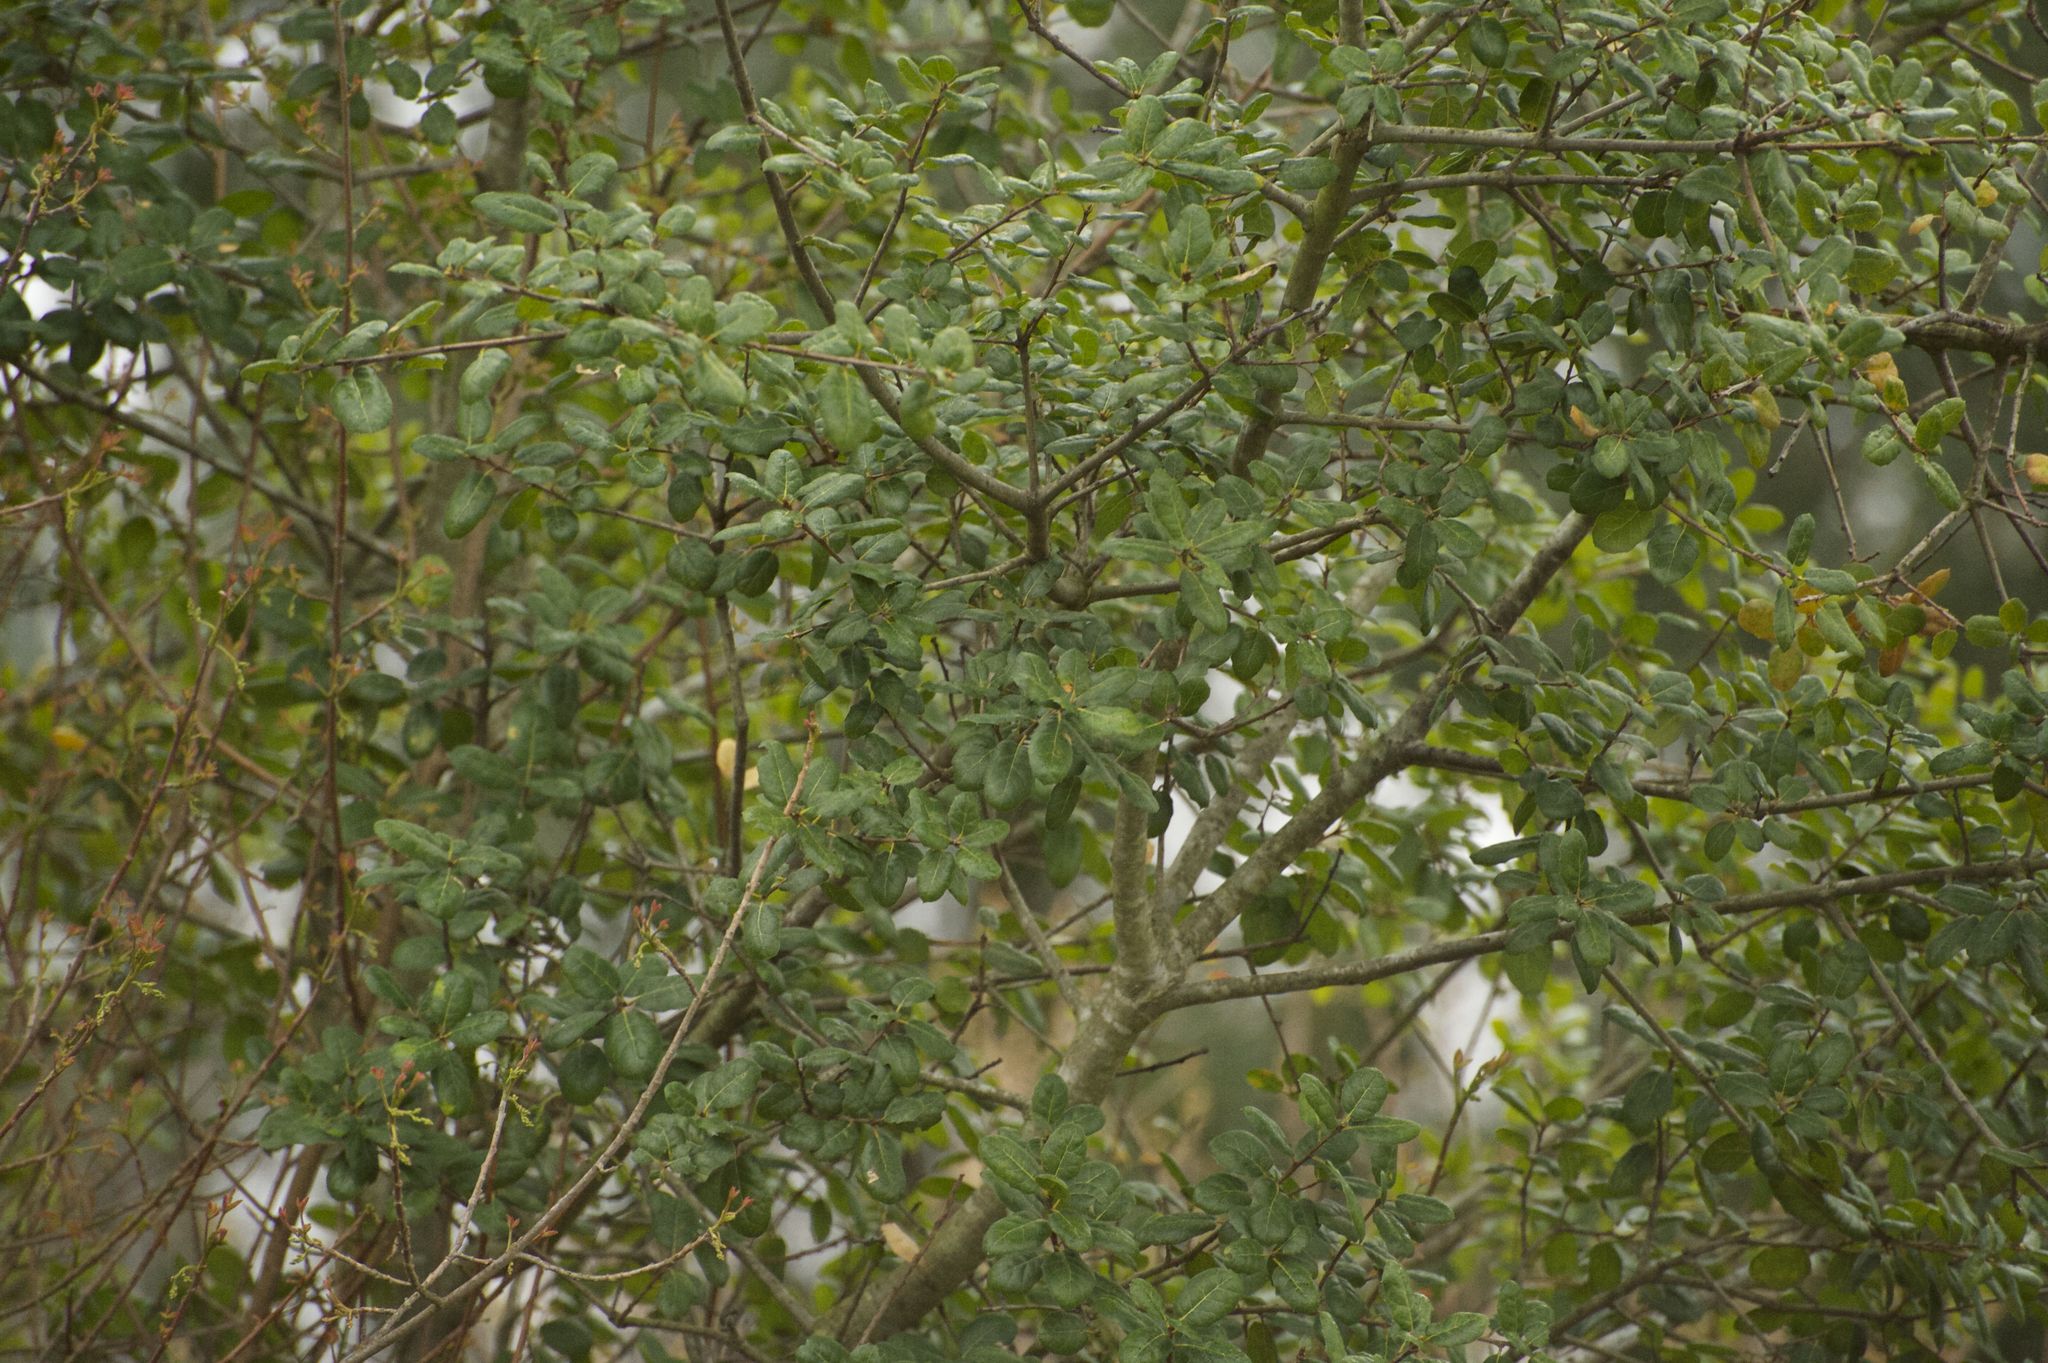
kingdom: Plantae
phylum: Tracheophyta
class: Magnoliopsida
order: Fagales
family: Fagaceae
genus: Quercus
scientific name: Quercus agrifolia
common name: California live oak
